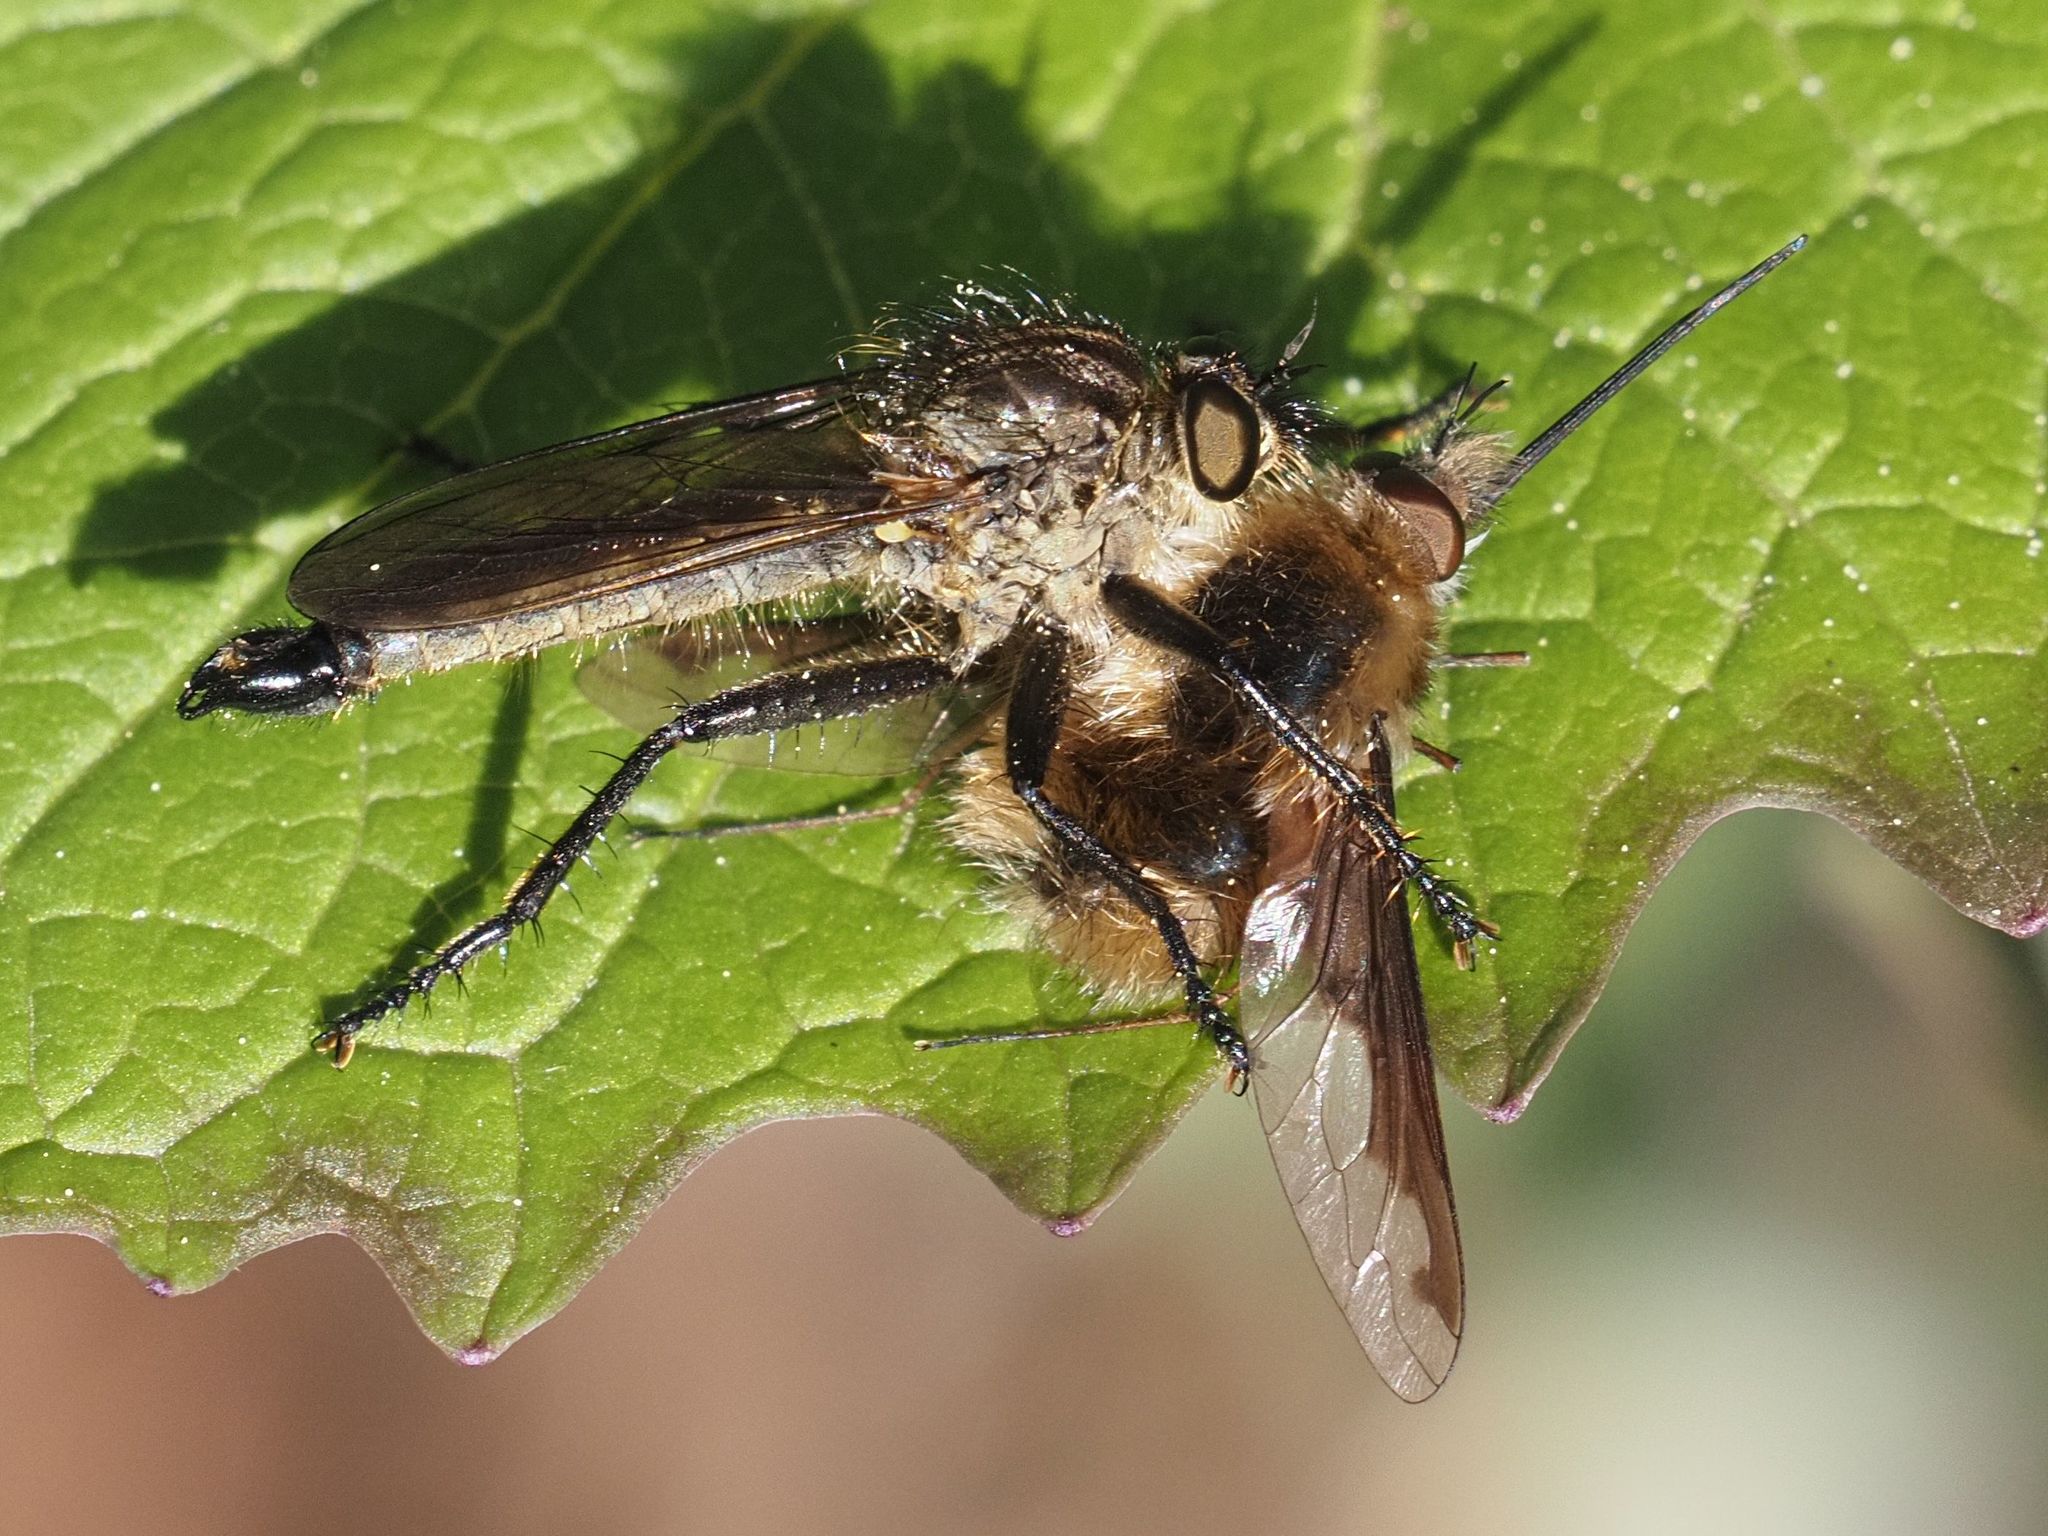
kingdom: Animalia
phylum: Arthropoda
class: Insecta
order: Diptera
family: Asilidae
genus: Didysmachus
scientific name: Didysmachus picipes
